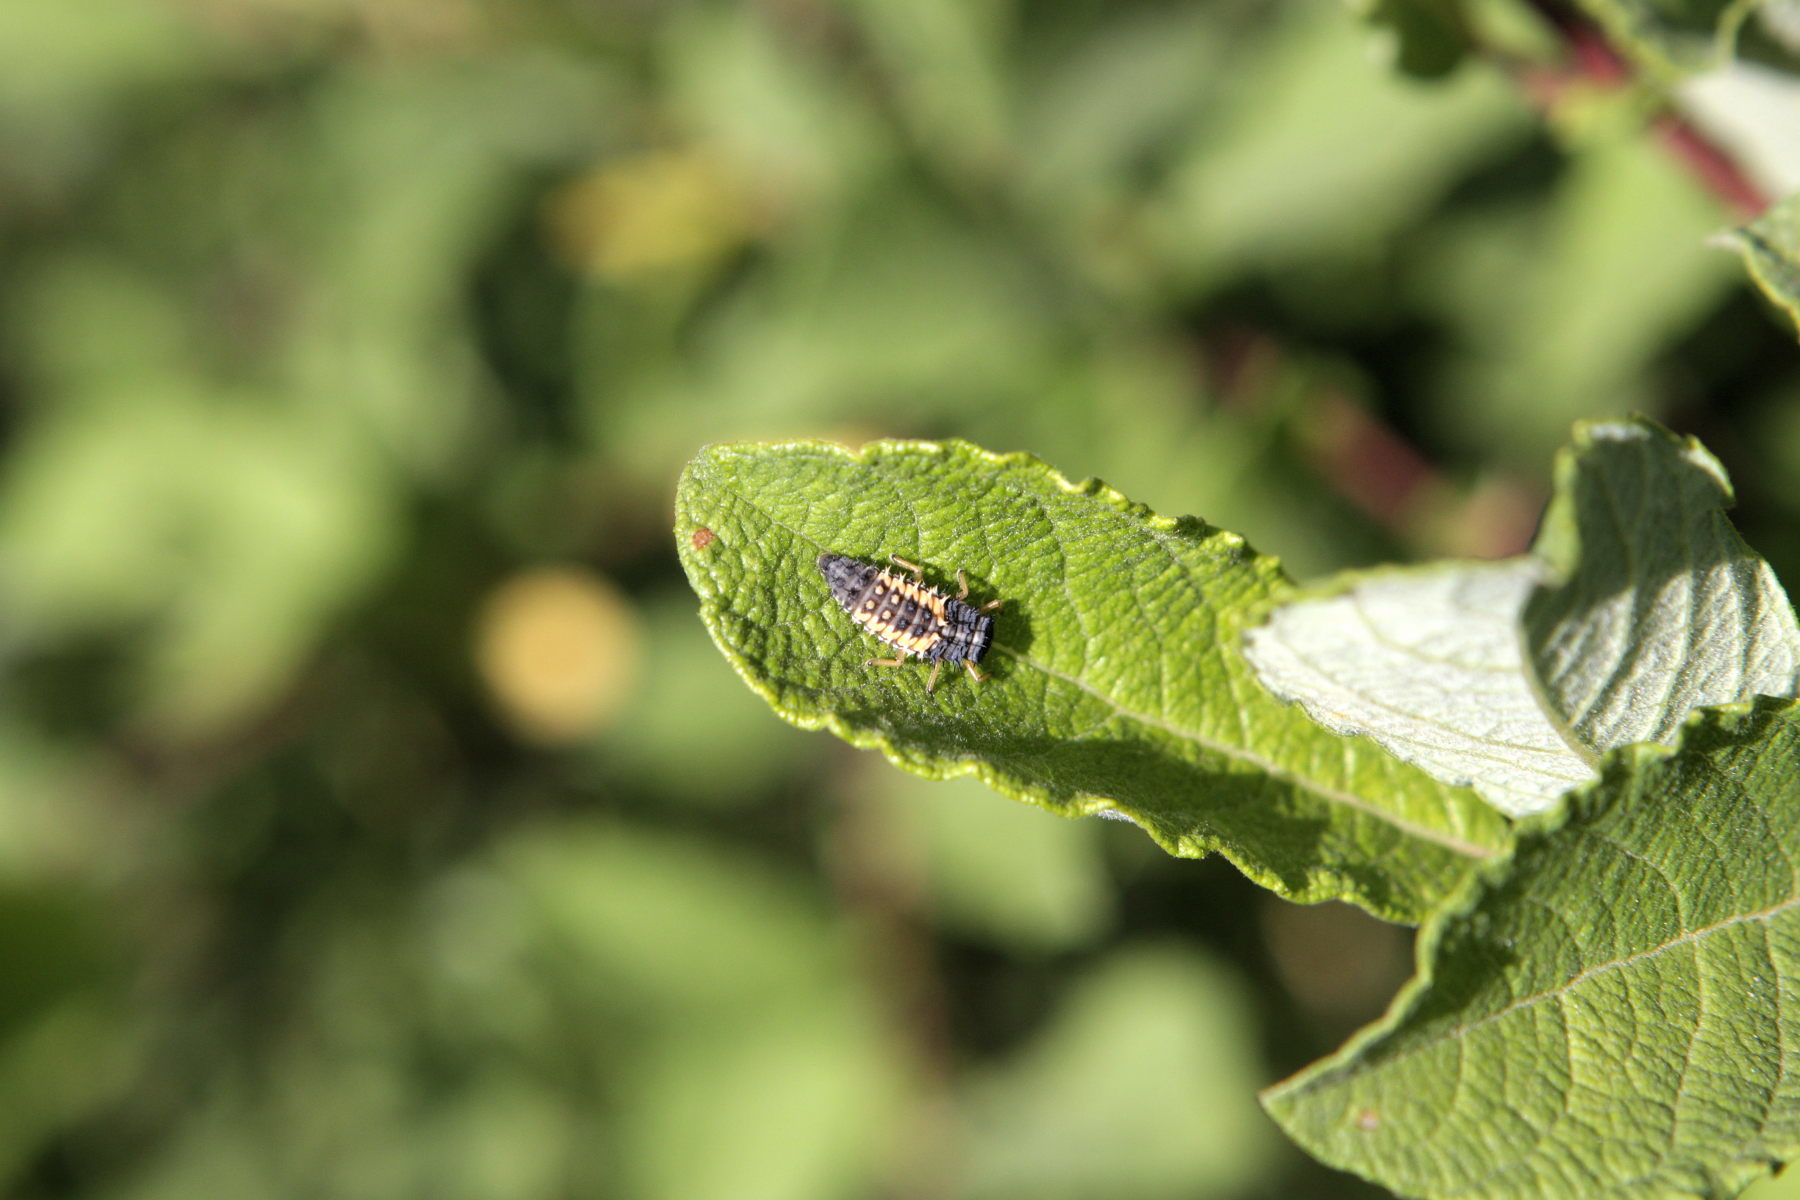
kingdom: Animalia
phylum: Arthropoda
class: Insecta
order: Coleoptera
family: Coccinellidae
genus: Harmonia
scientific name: Harmonia axyridis
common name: Harlequin ladybird
